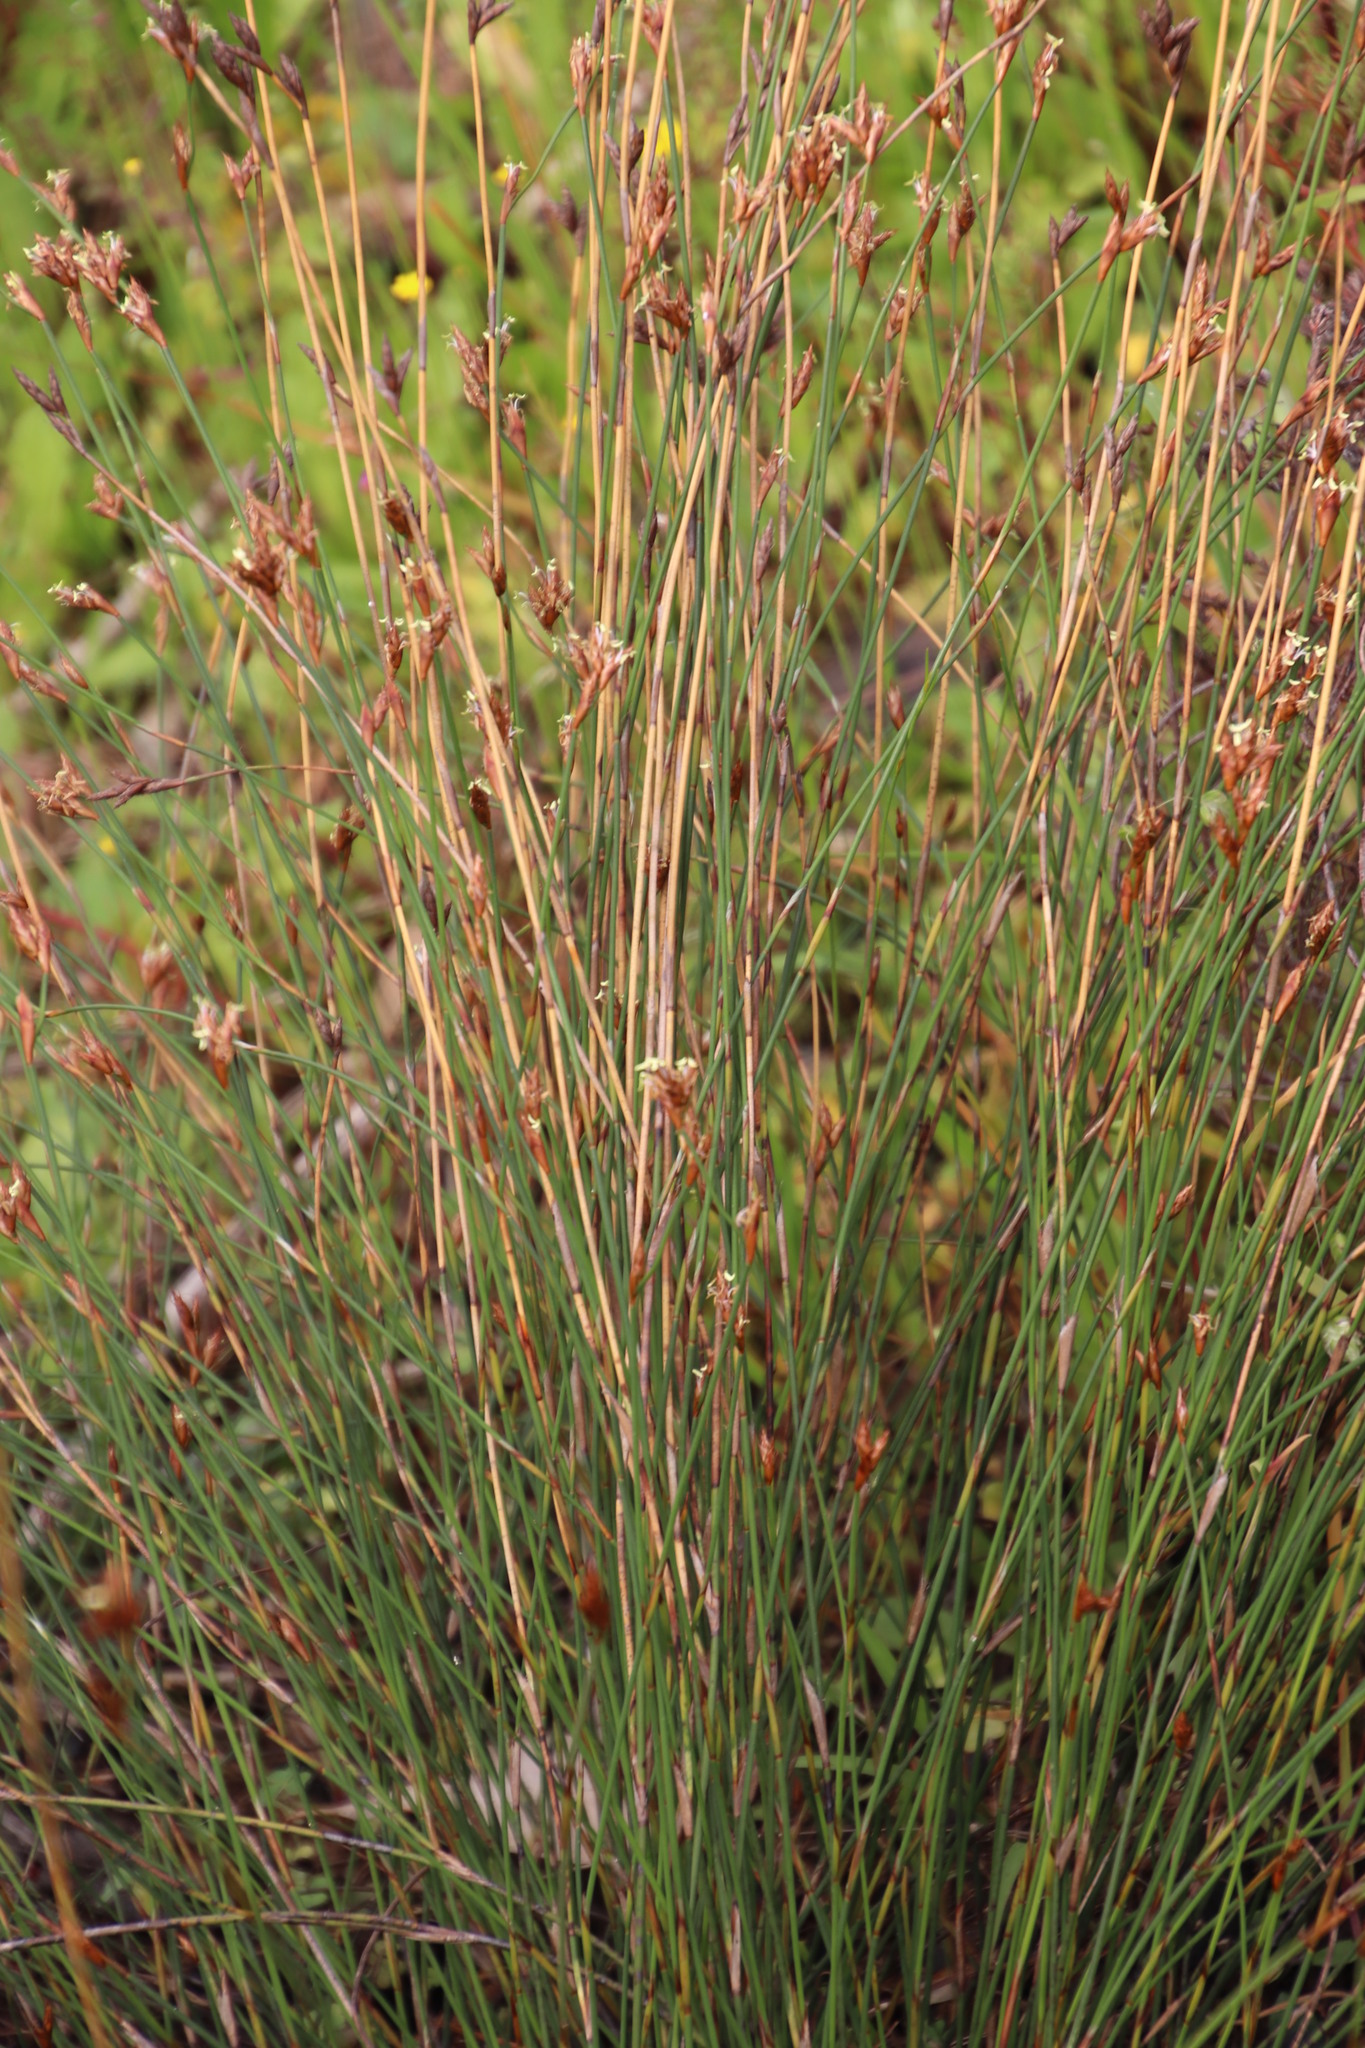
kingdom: Plantae
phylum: Tracheophyta
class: Liliopsida
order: Poales
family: Restionaceae
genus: Restio
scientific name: Restio capensis
